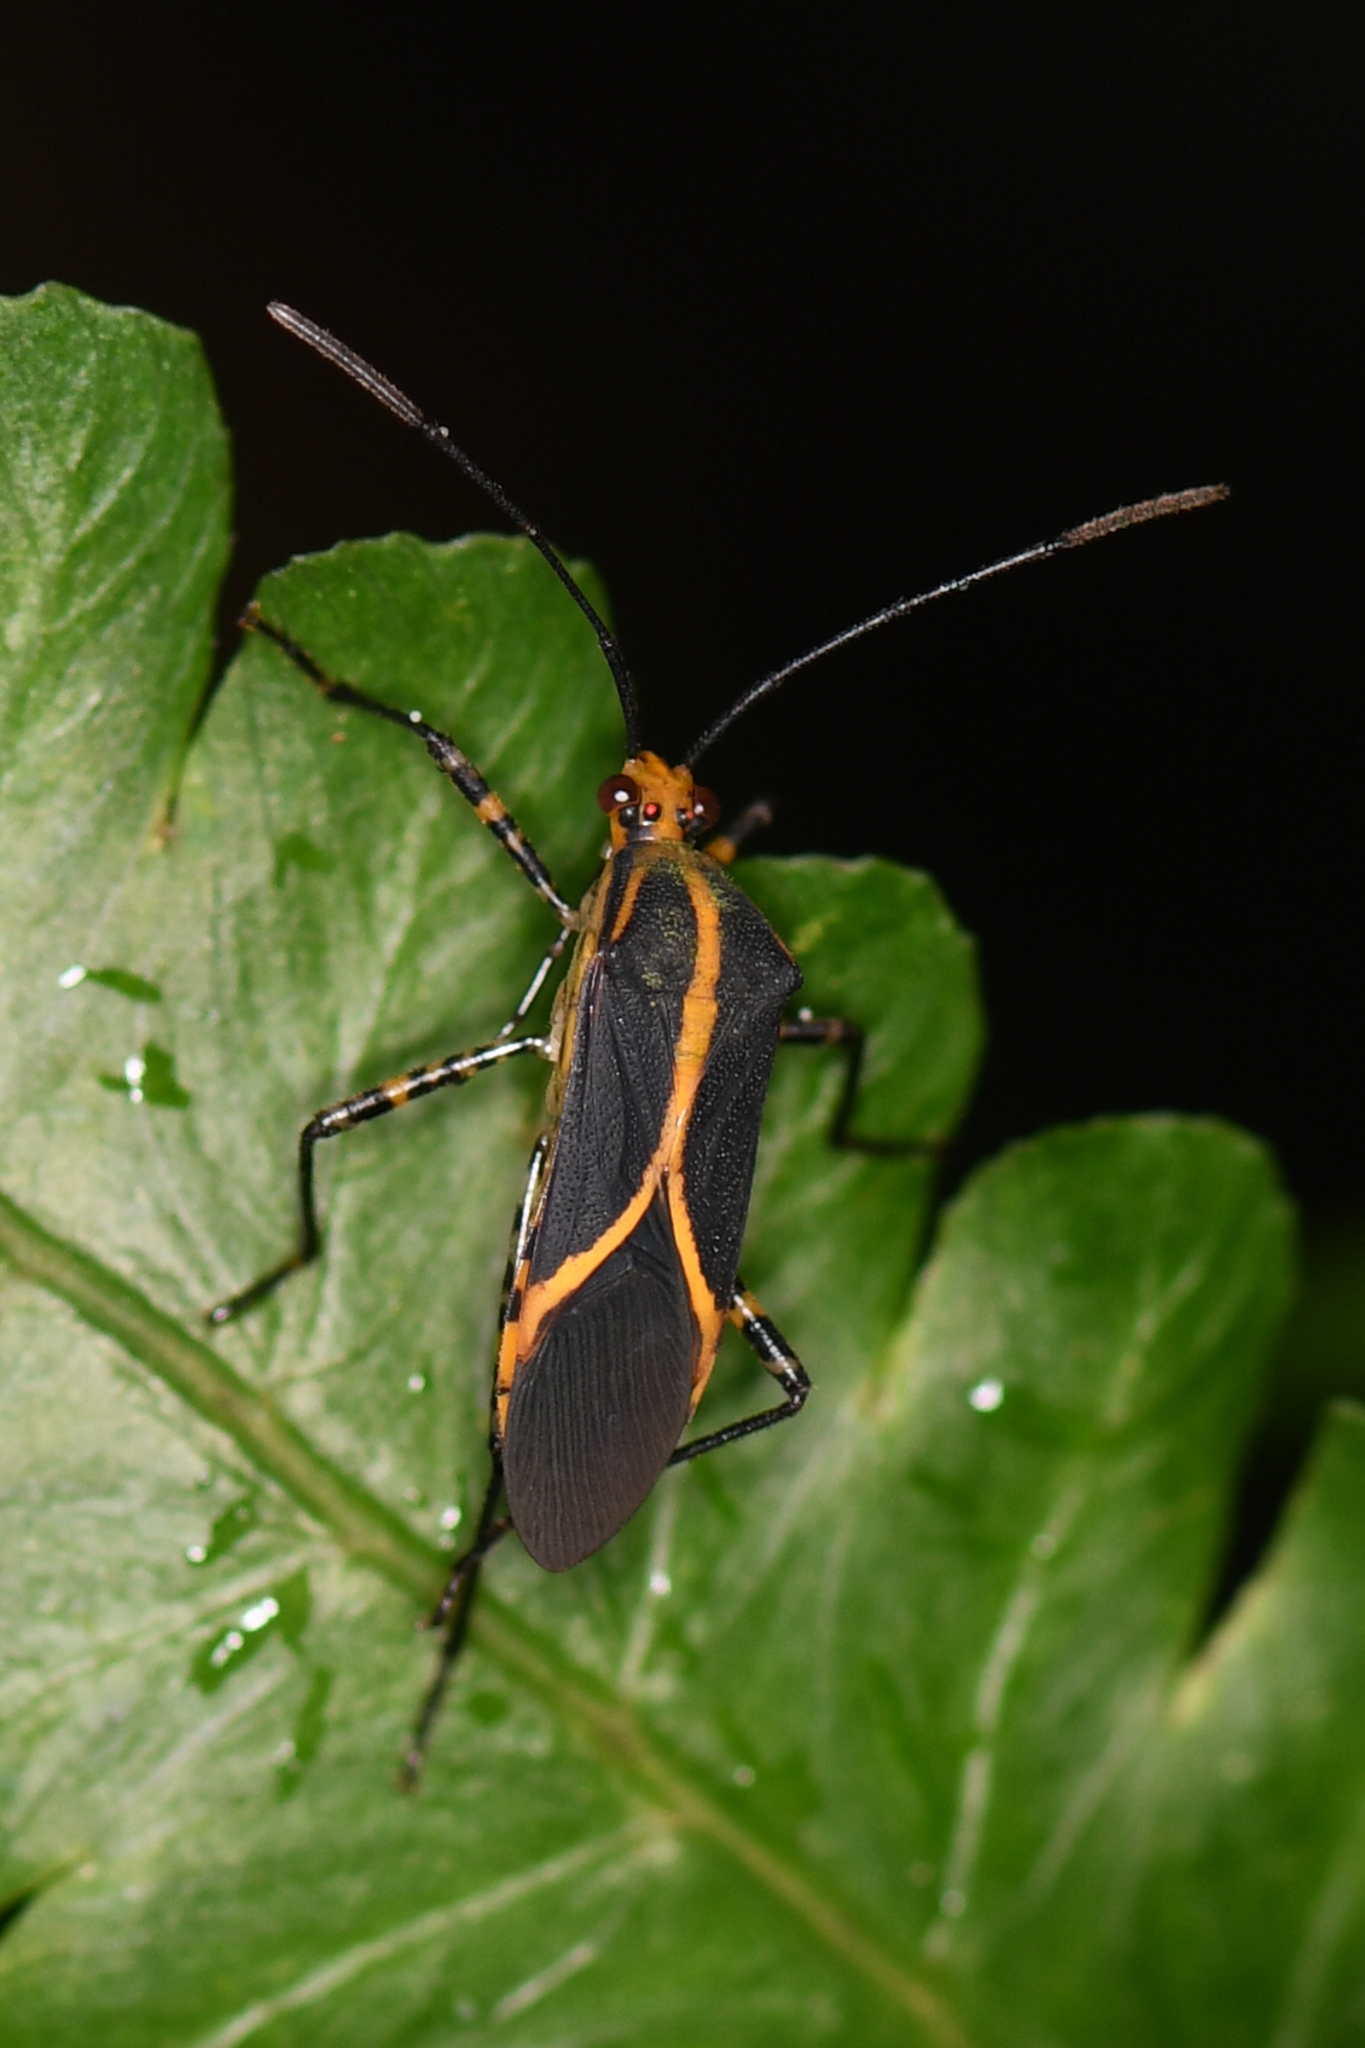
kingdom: Animalia
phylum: Arthropoda
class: Insecta
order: Hemiptera
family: Coreidae
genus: Hypselonotus
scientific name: Hypselonotus linea
